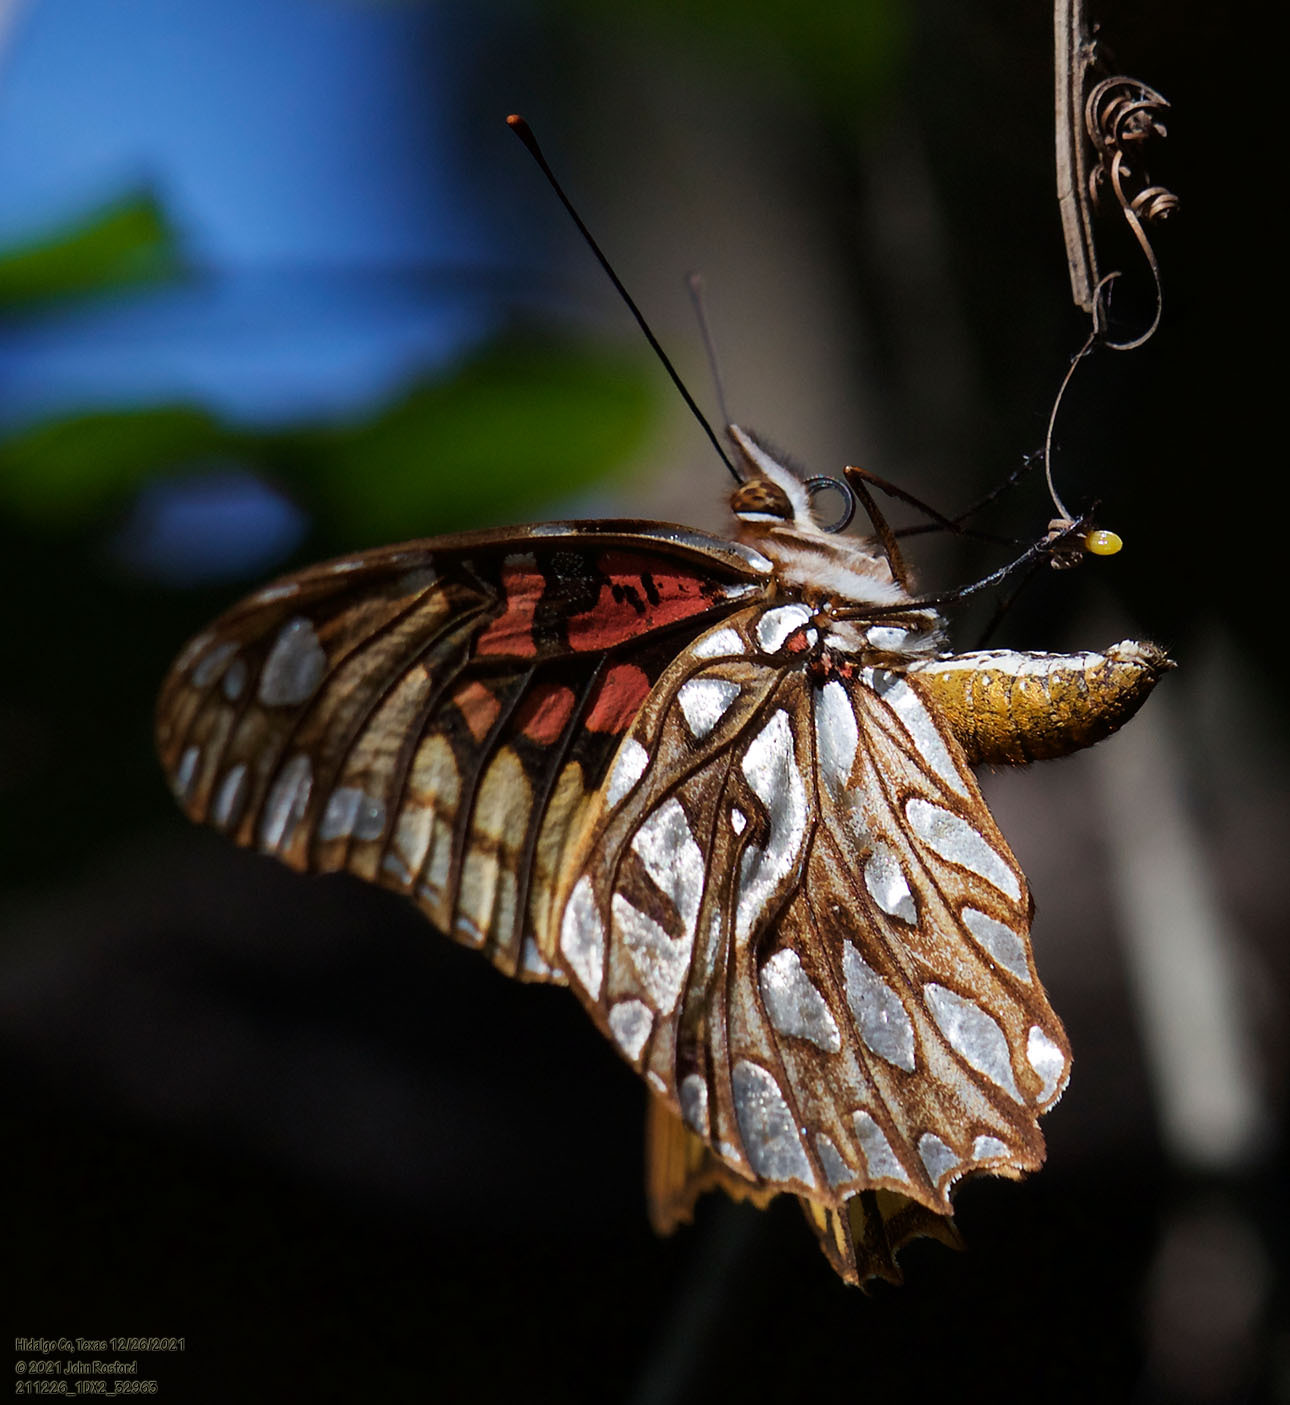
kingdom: Animalia
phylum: Arthropoda
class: Insecta
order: Lepidoptera
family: Nymphalidae
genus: Dione
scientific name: Dione moneta
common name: Mexican silverspot
